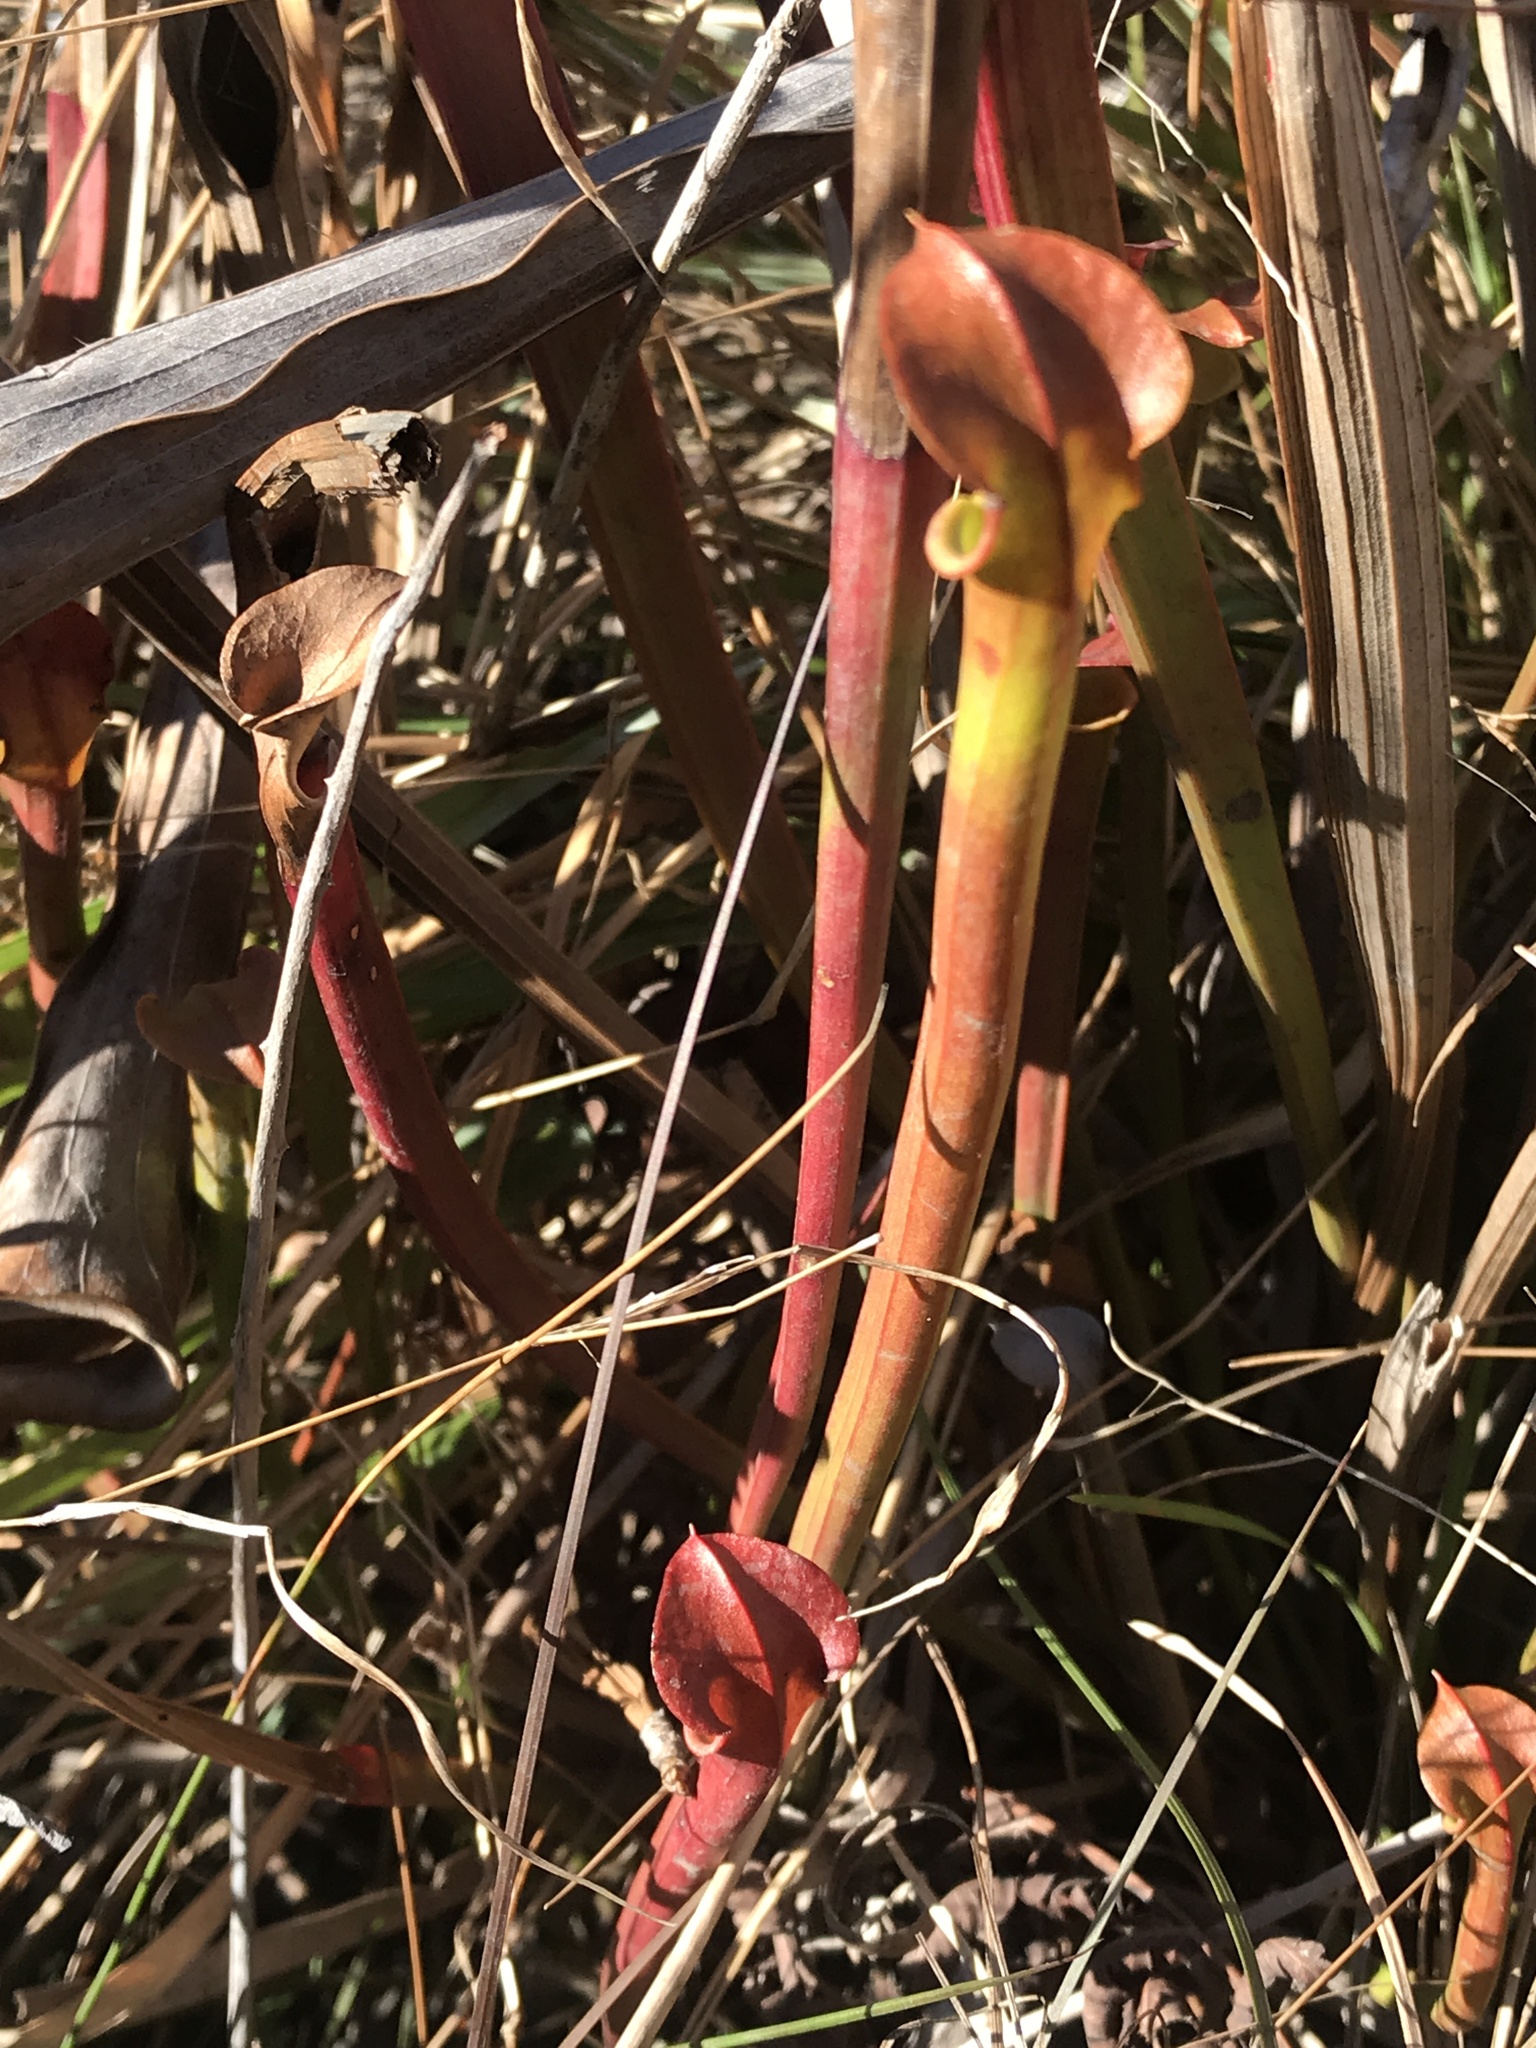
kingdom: Plantae
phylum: Tracheophyta
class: Magnoliopsida
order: Ericales
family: Sarraceniaceae
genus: Sarracenia
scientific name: Sarracenia flava
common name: Trumpets
